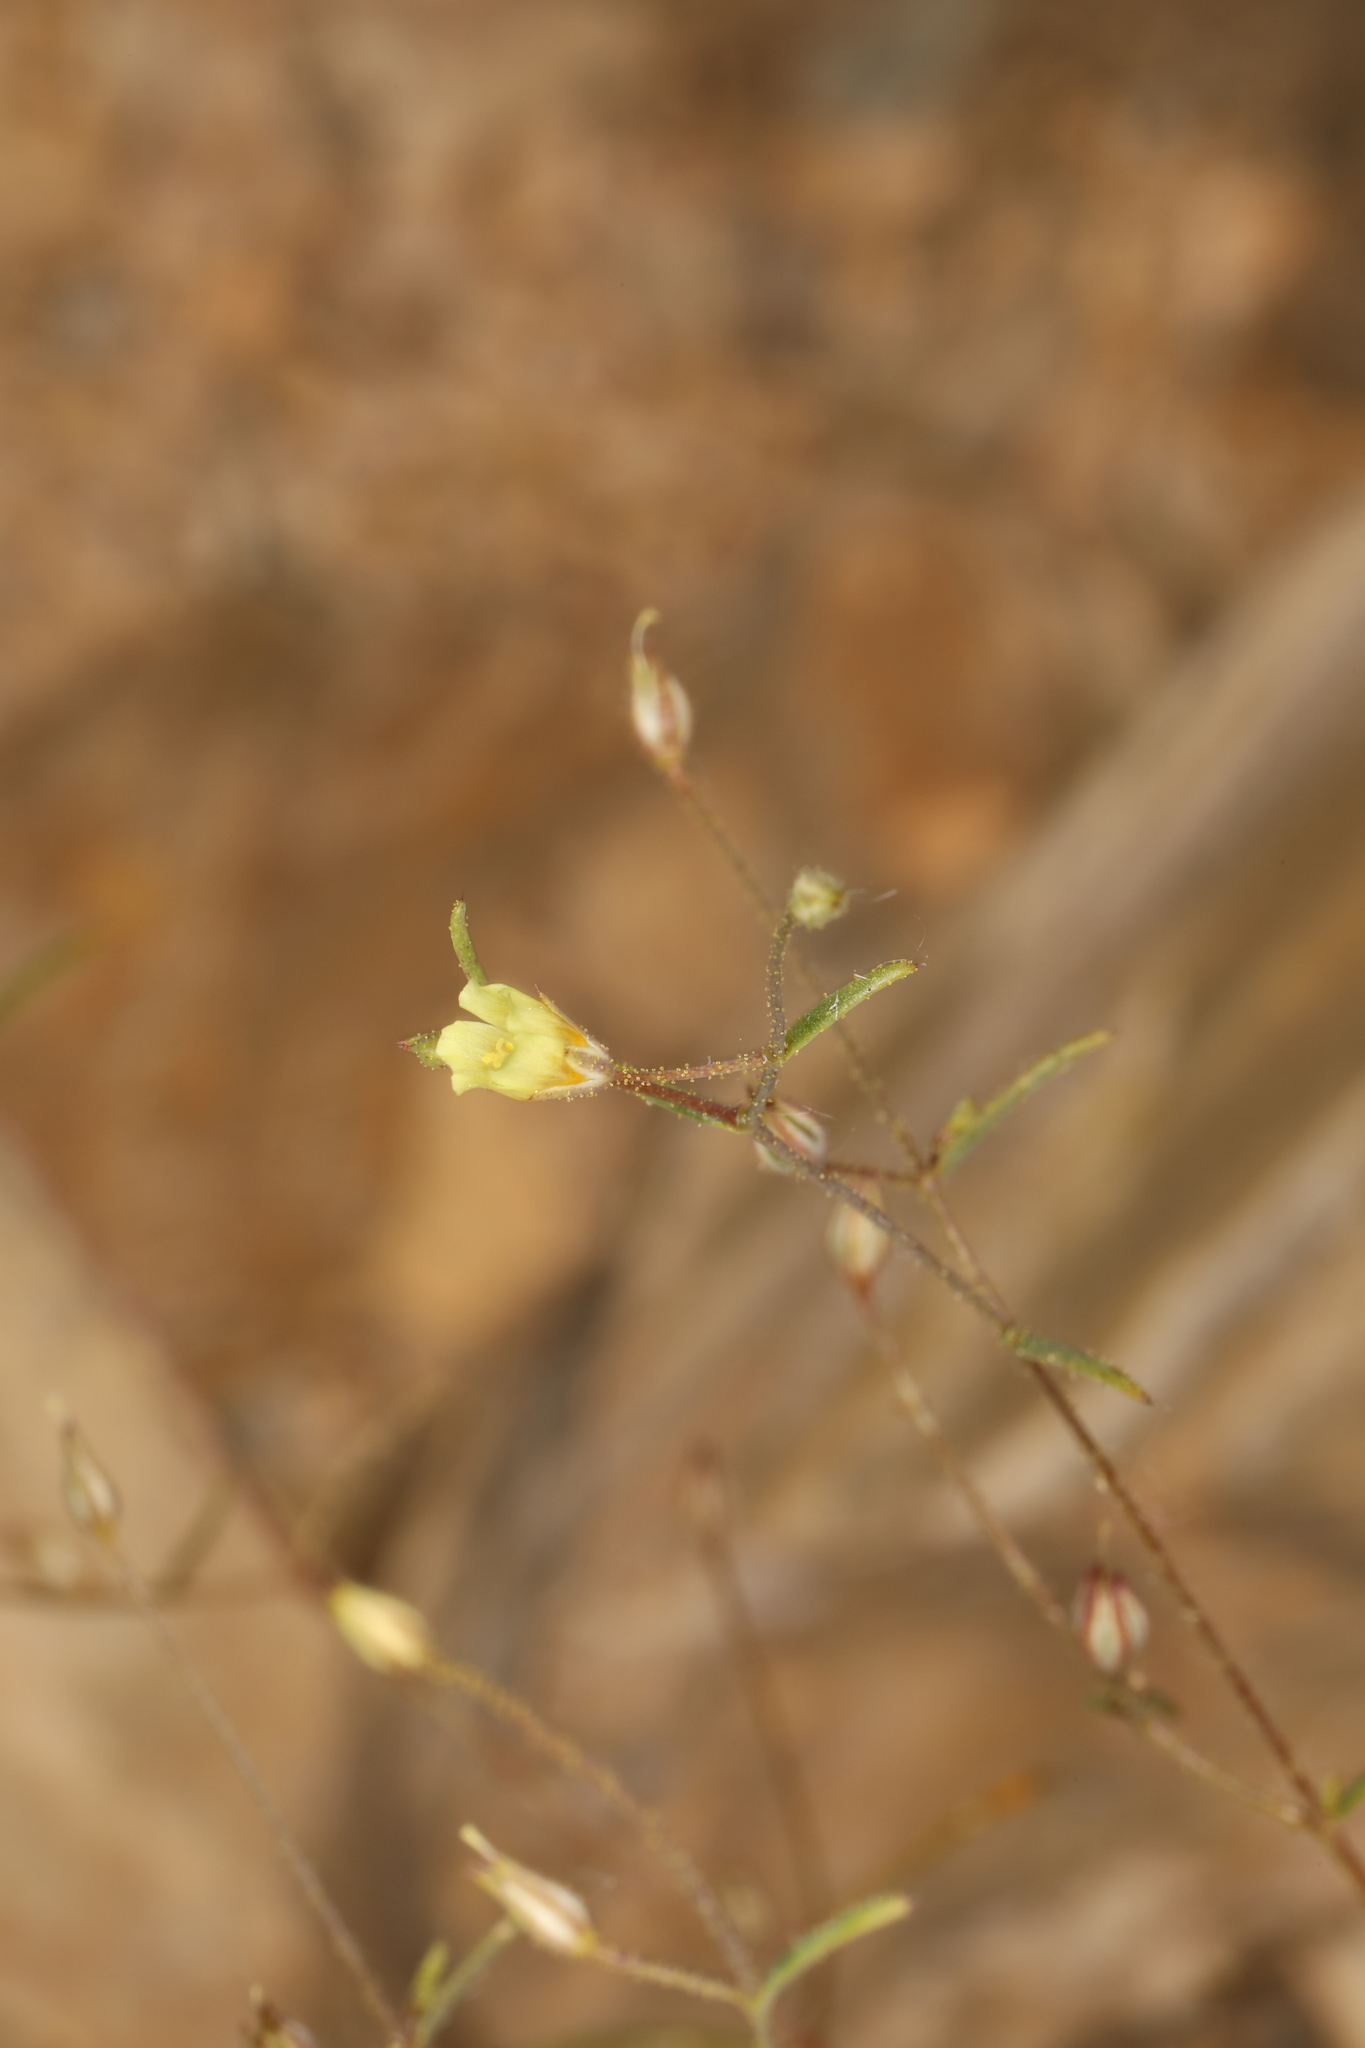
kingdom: Plantae
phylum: Tracheophyta
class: Magnoliopsida
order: Ericales
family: Polemoniaceae
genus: Linanthus
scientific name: Linanthus filiformis
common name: Yellow gilia
